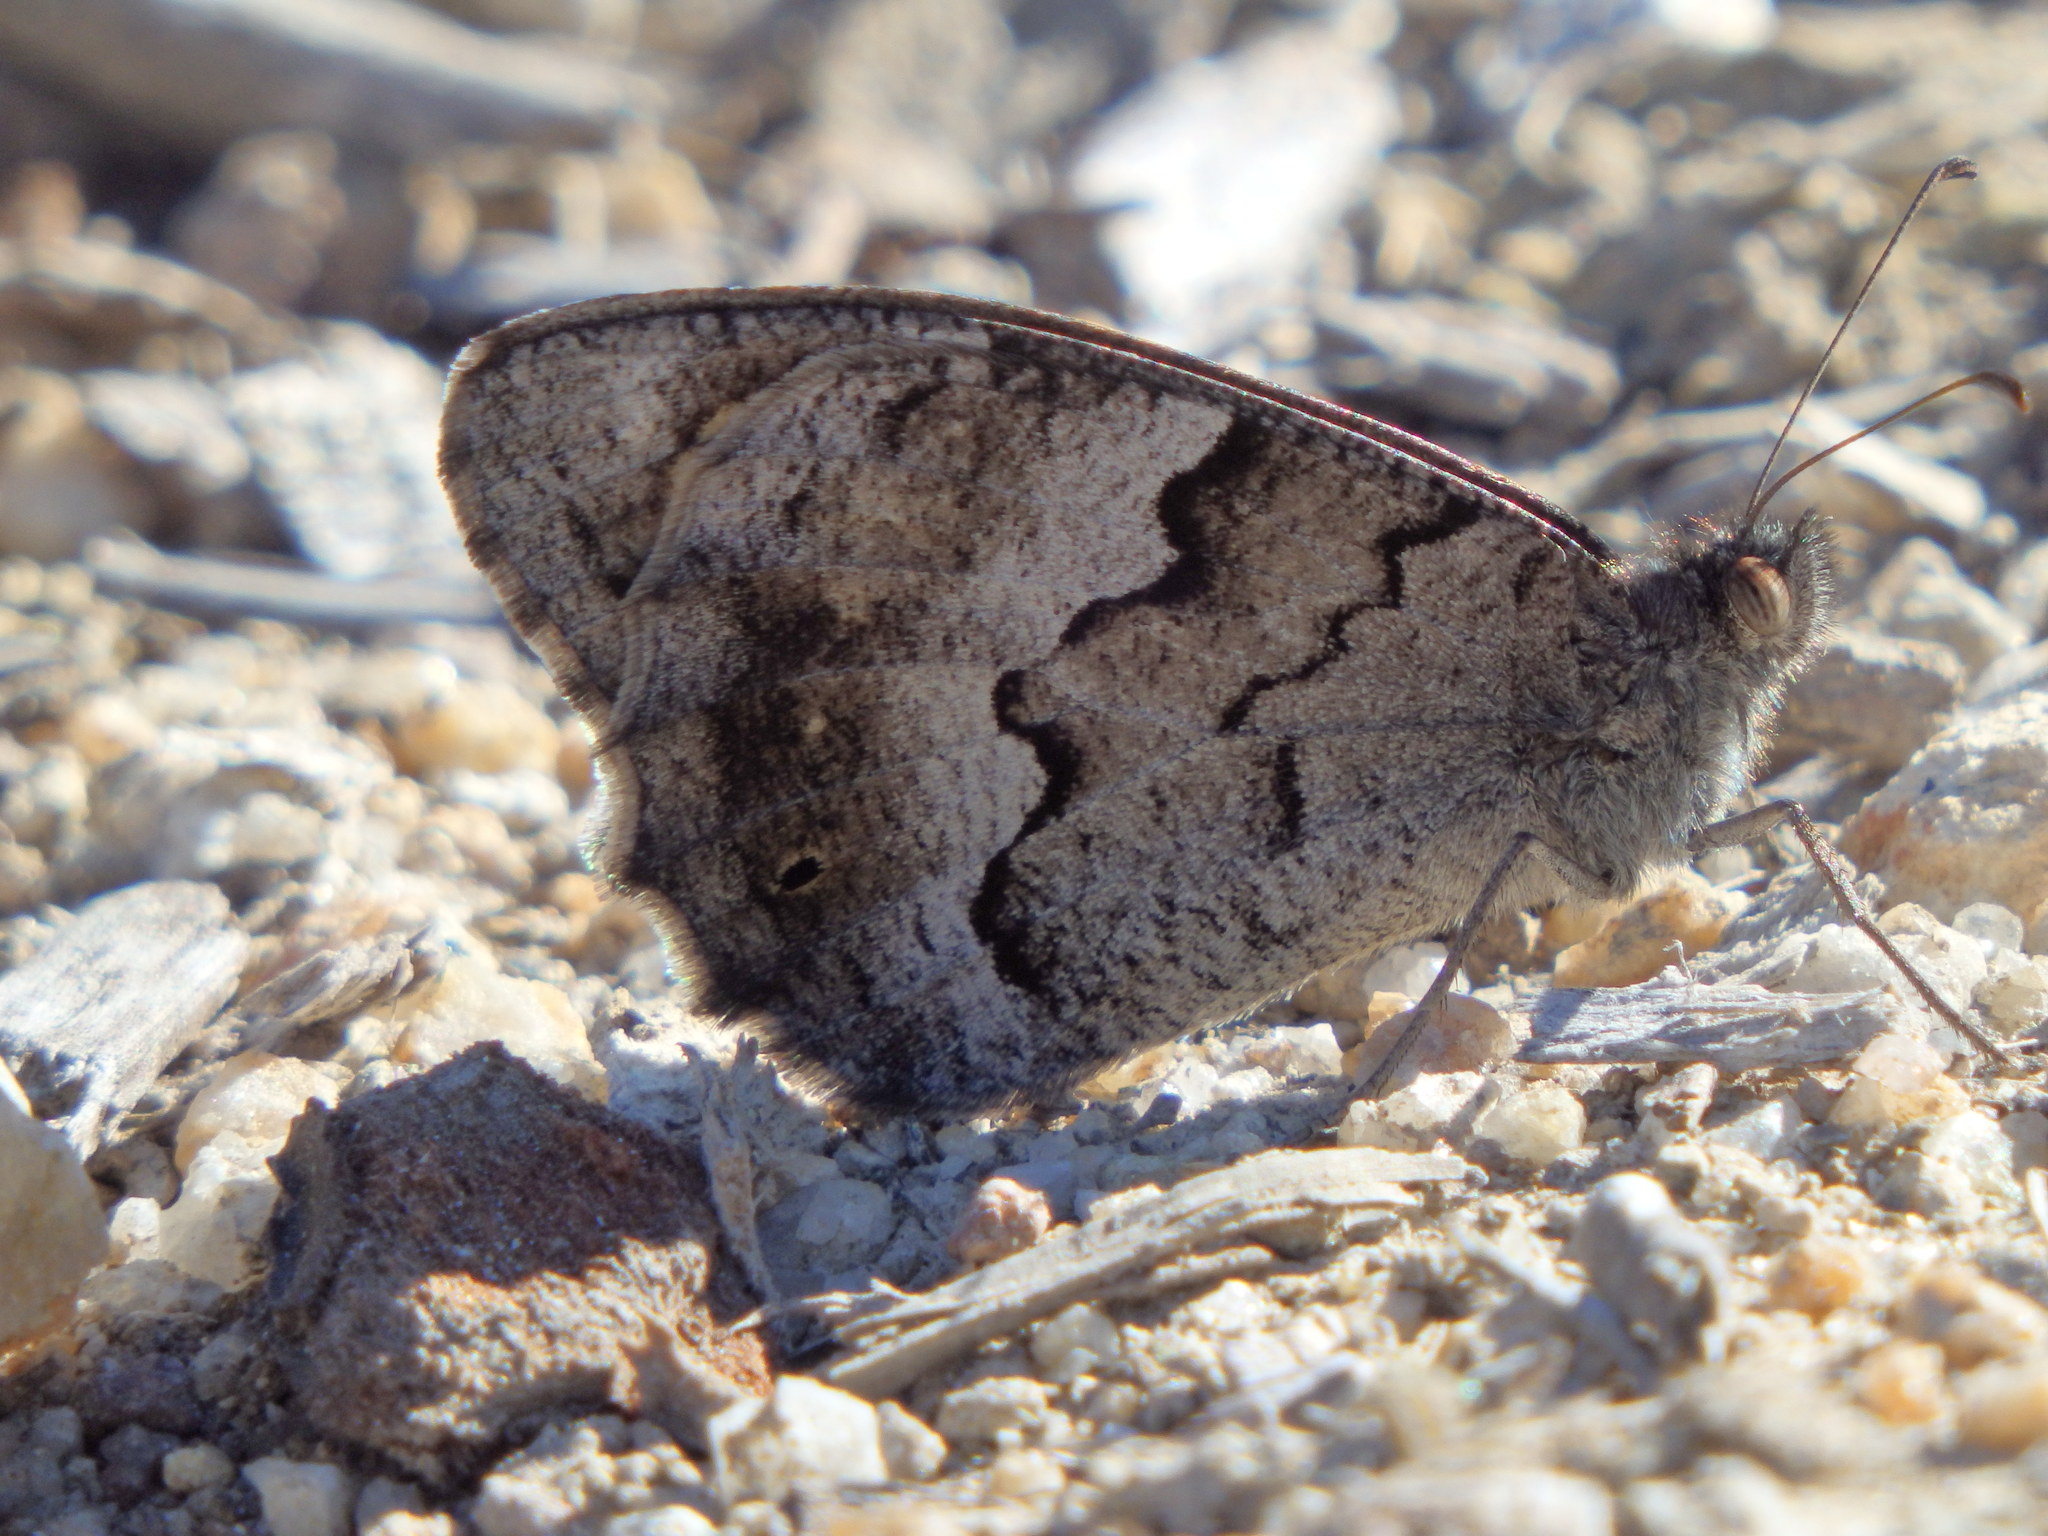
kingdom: Animalia
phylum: Arthropoda
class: Insecta
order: Lepidoptera
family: Nymphalidae
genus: Hipparchia
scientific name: Hipparchia statilinus
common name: Tree grayling
